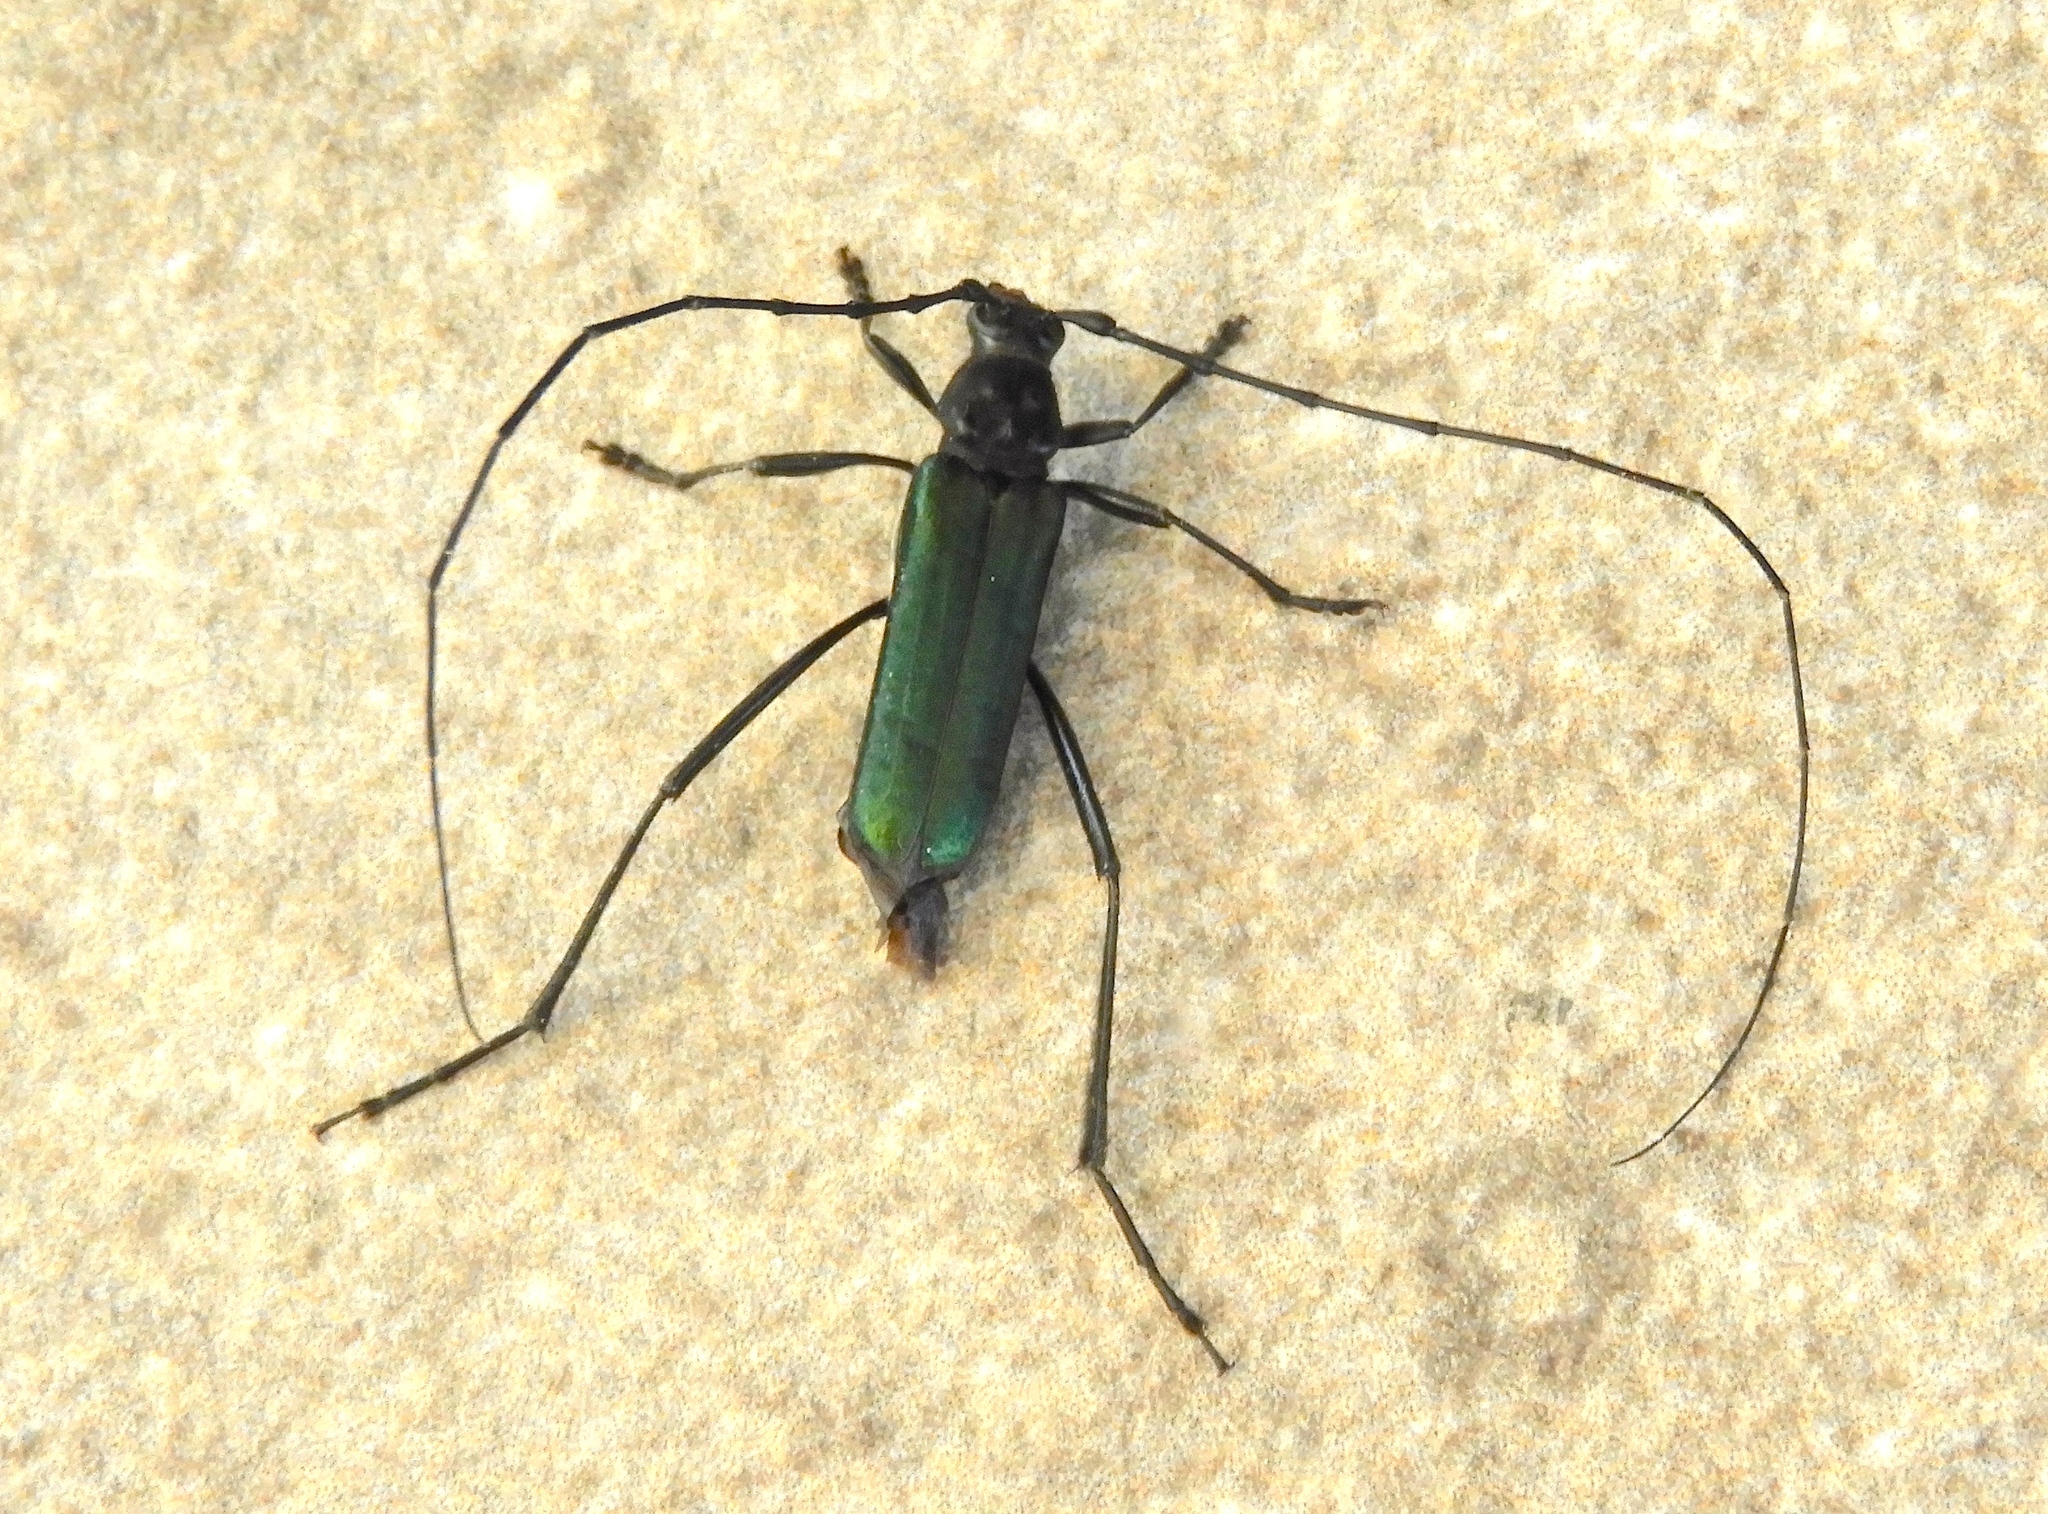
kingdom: Animalia
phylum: Arthropoda
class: Insecta
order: Coleoptera
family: Cerambycidae
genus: Pseudodeltaspis
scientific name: Pseudodeltaspis cyanea
